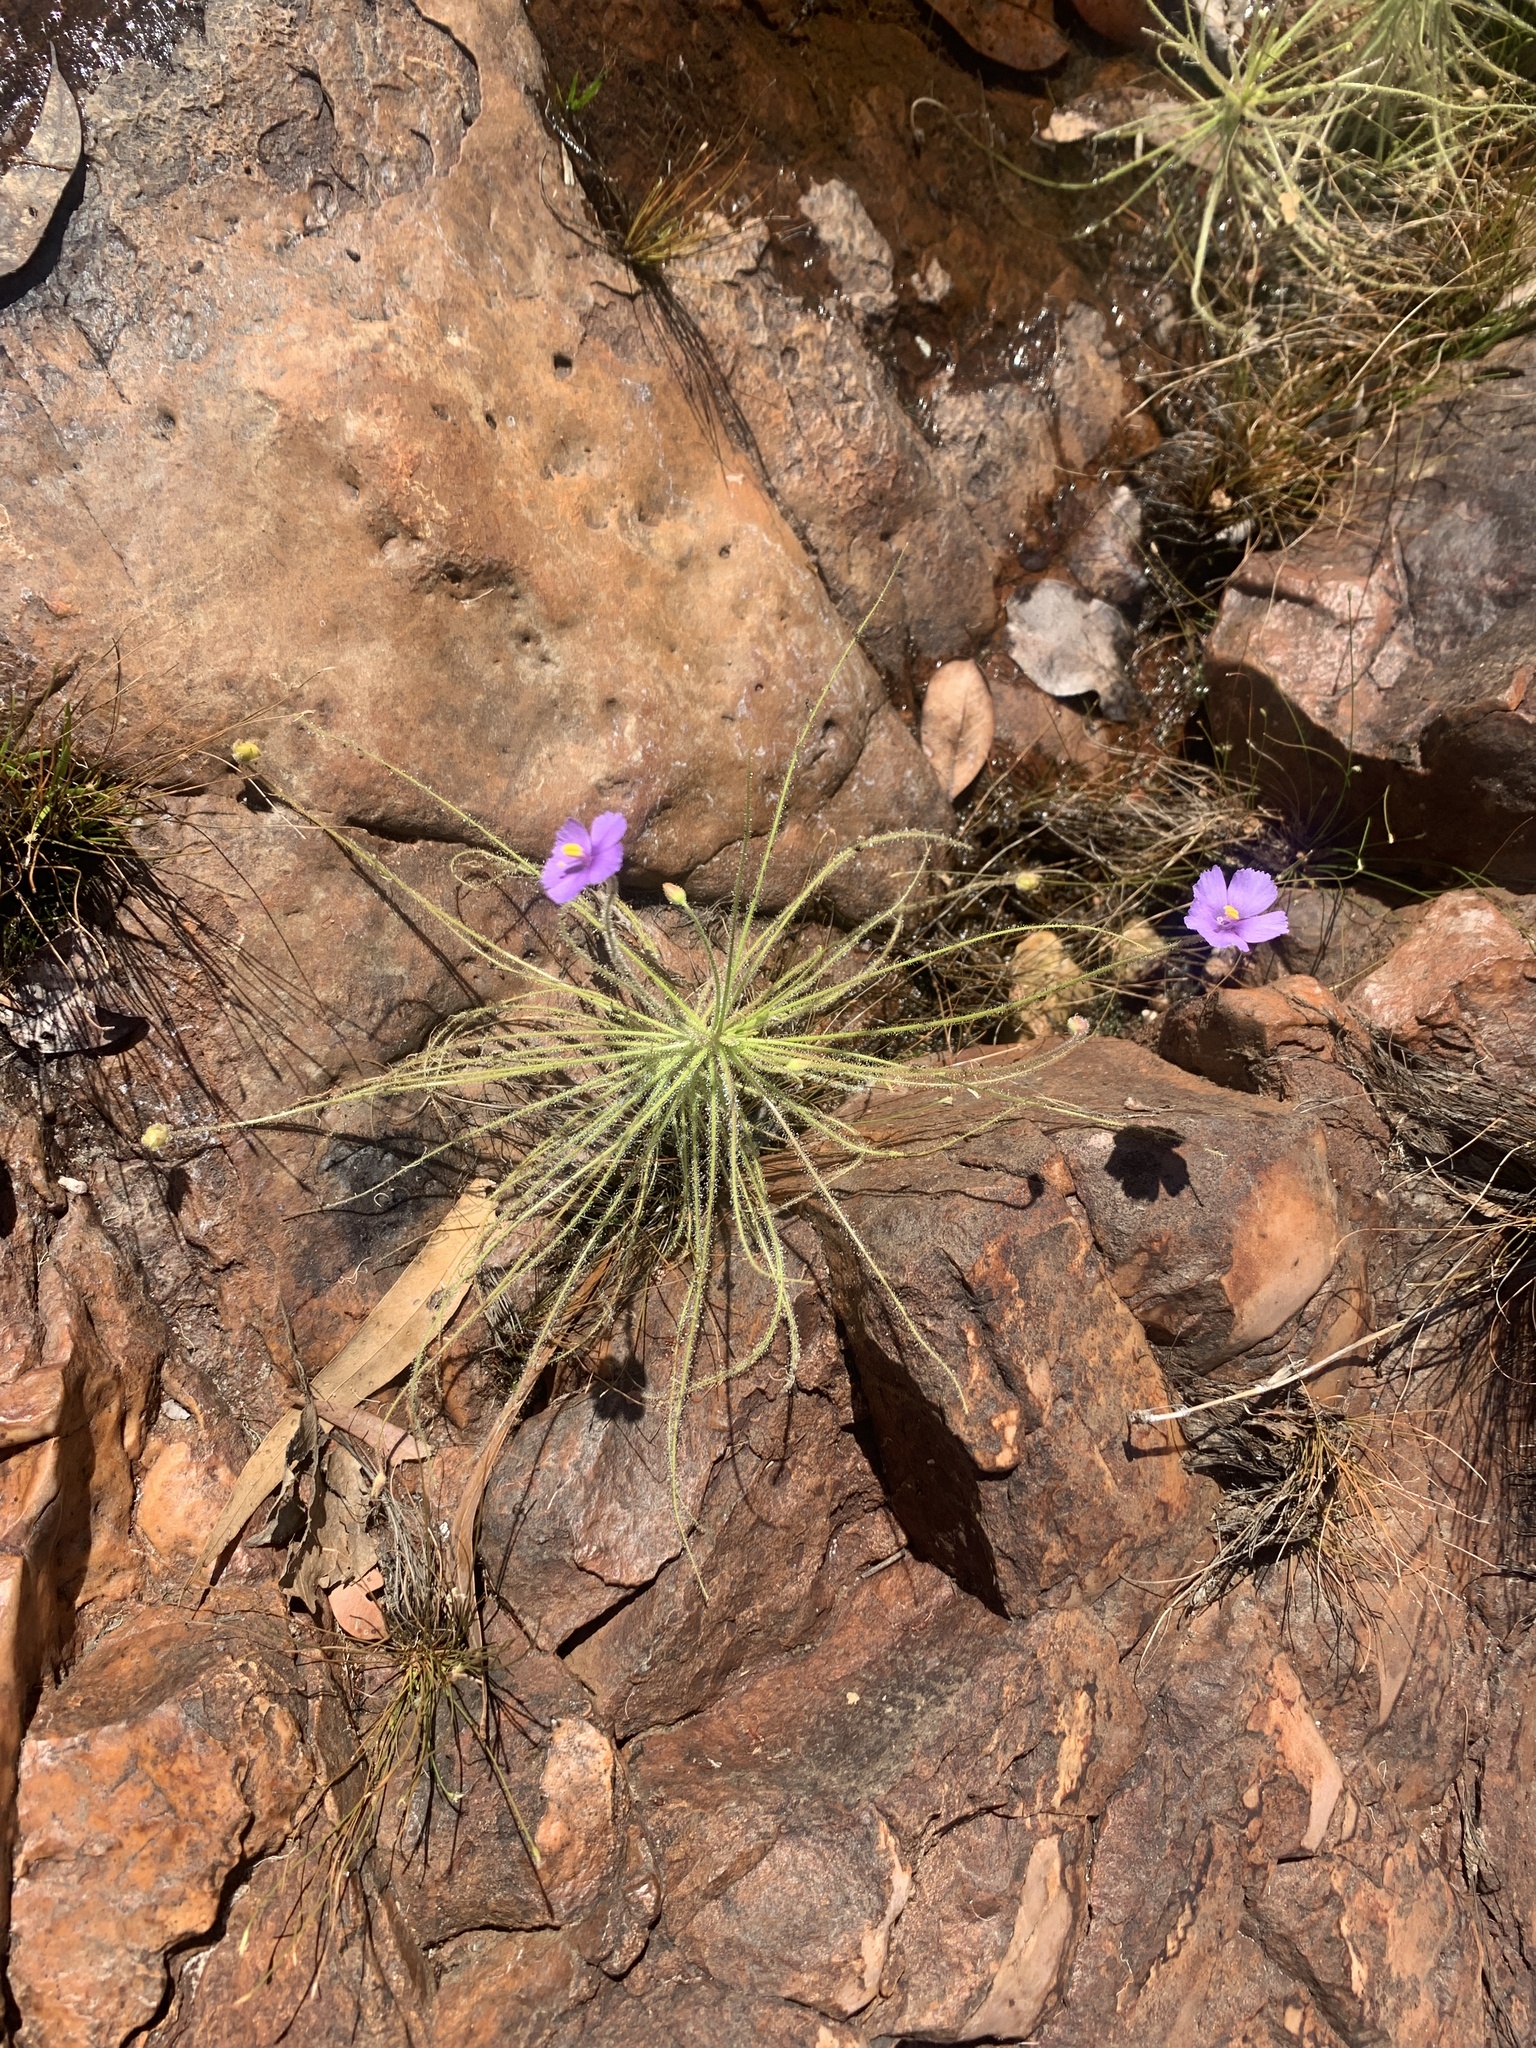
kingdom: Plantae
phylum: Tracheophyta
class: Magnoliopsida
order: Lamiales
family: Byblidaceae
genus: Byblis
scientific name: Byblis liniflora
